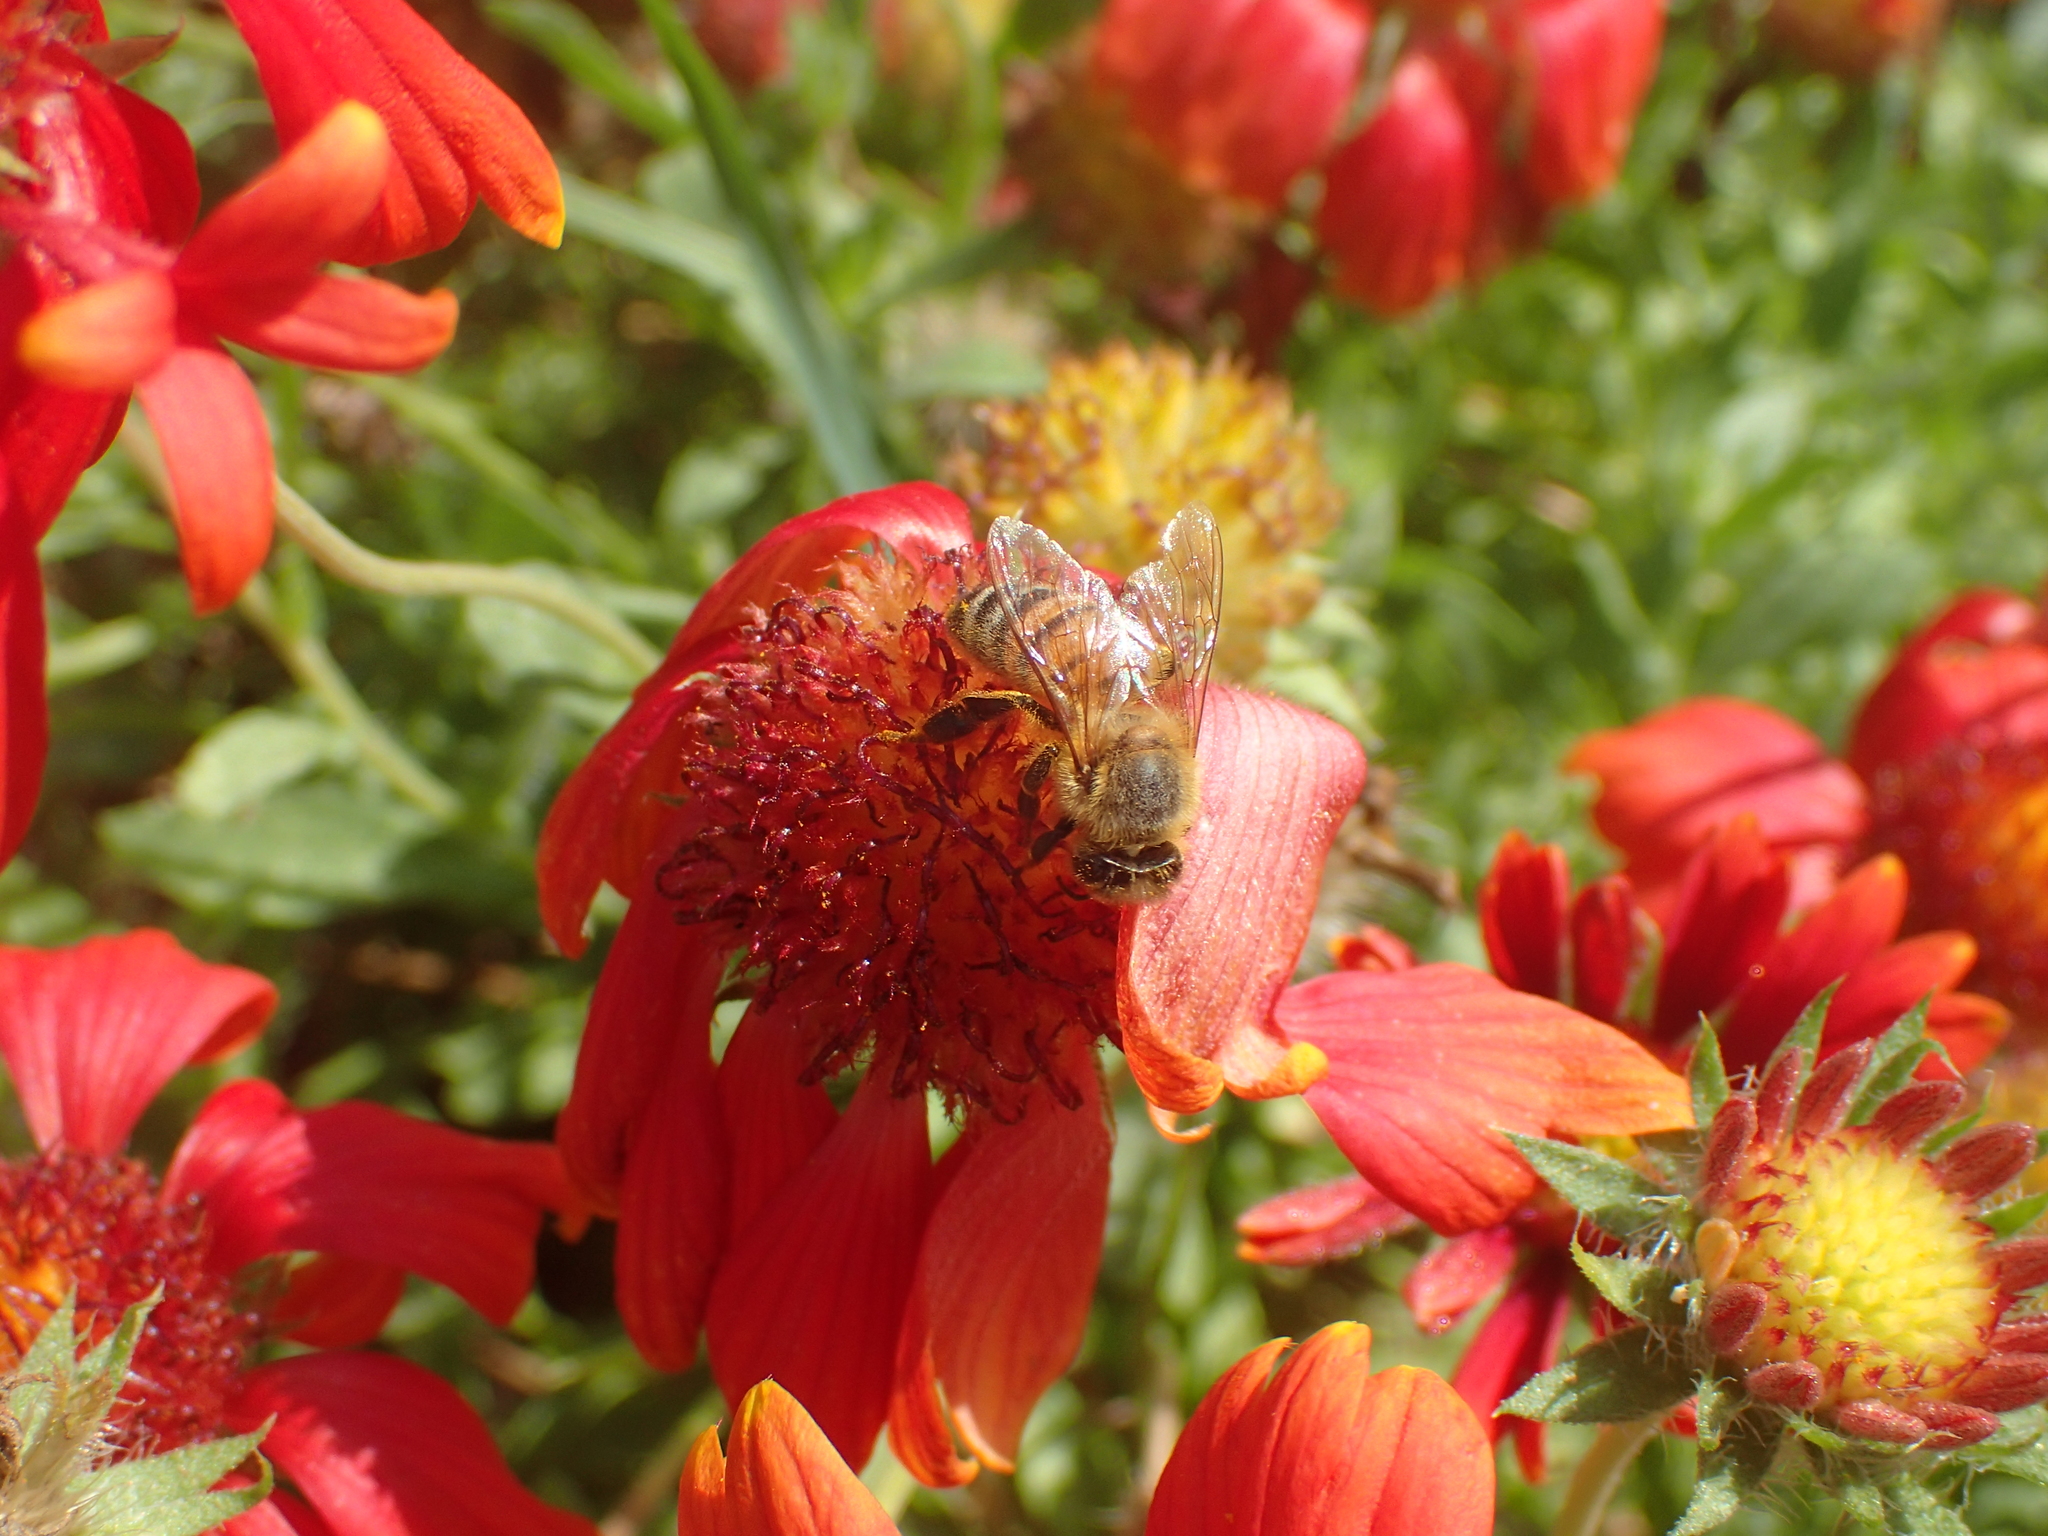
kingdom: Animalia
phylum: Arthropoda
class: Insecta
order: Hymenoptera
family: Apidae
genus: Apis
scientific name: Apis mellifera
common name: Honey bee
